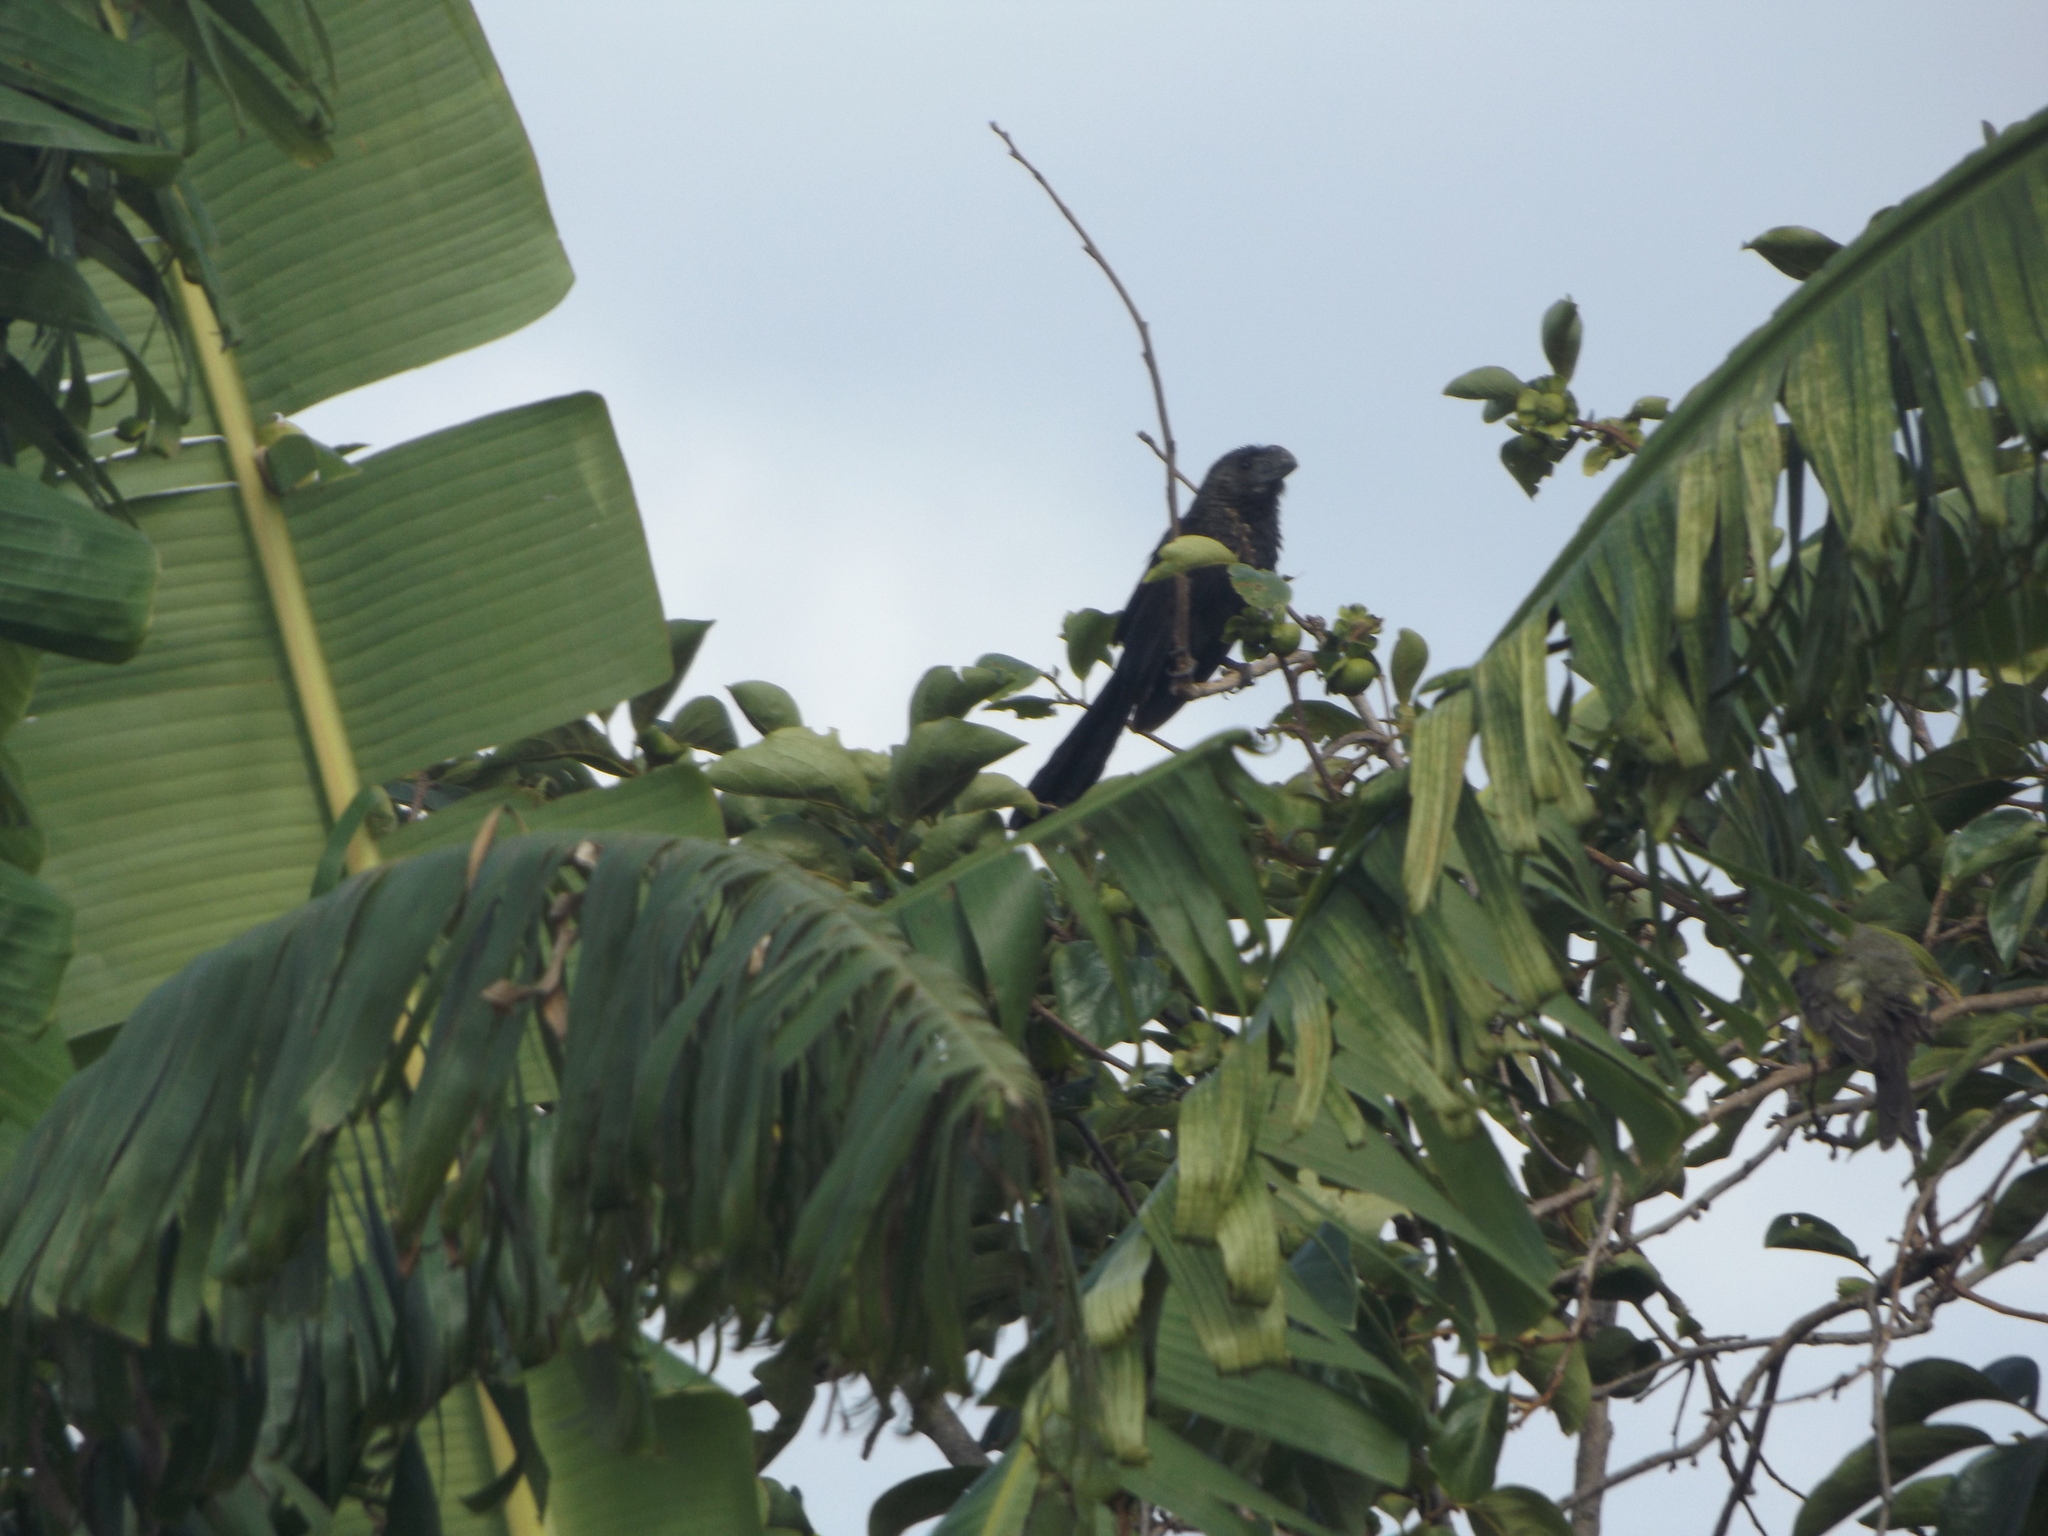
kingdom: Animalia
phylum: Chordata
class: Aves
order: Cuculiformes
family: Cuculidae
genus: Crotophaga
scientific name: Crotophaga ani
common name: Smooth-billed ani
